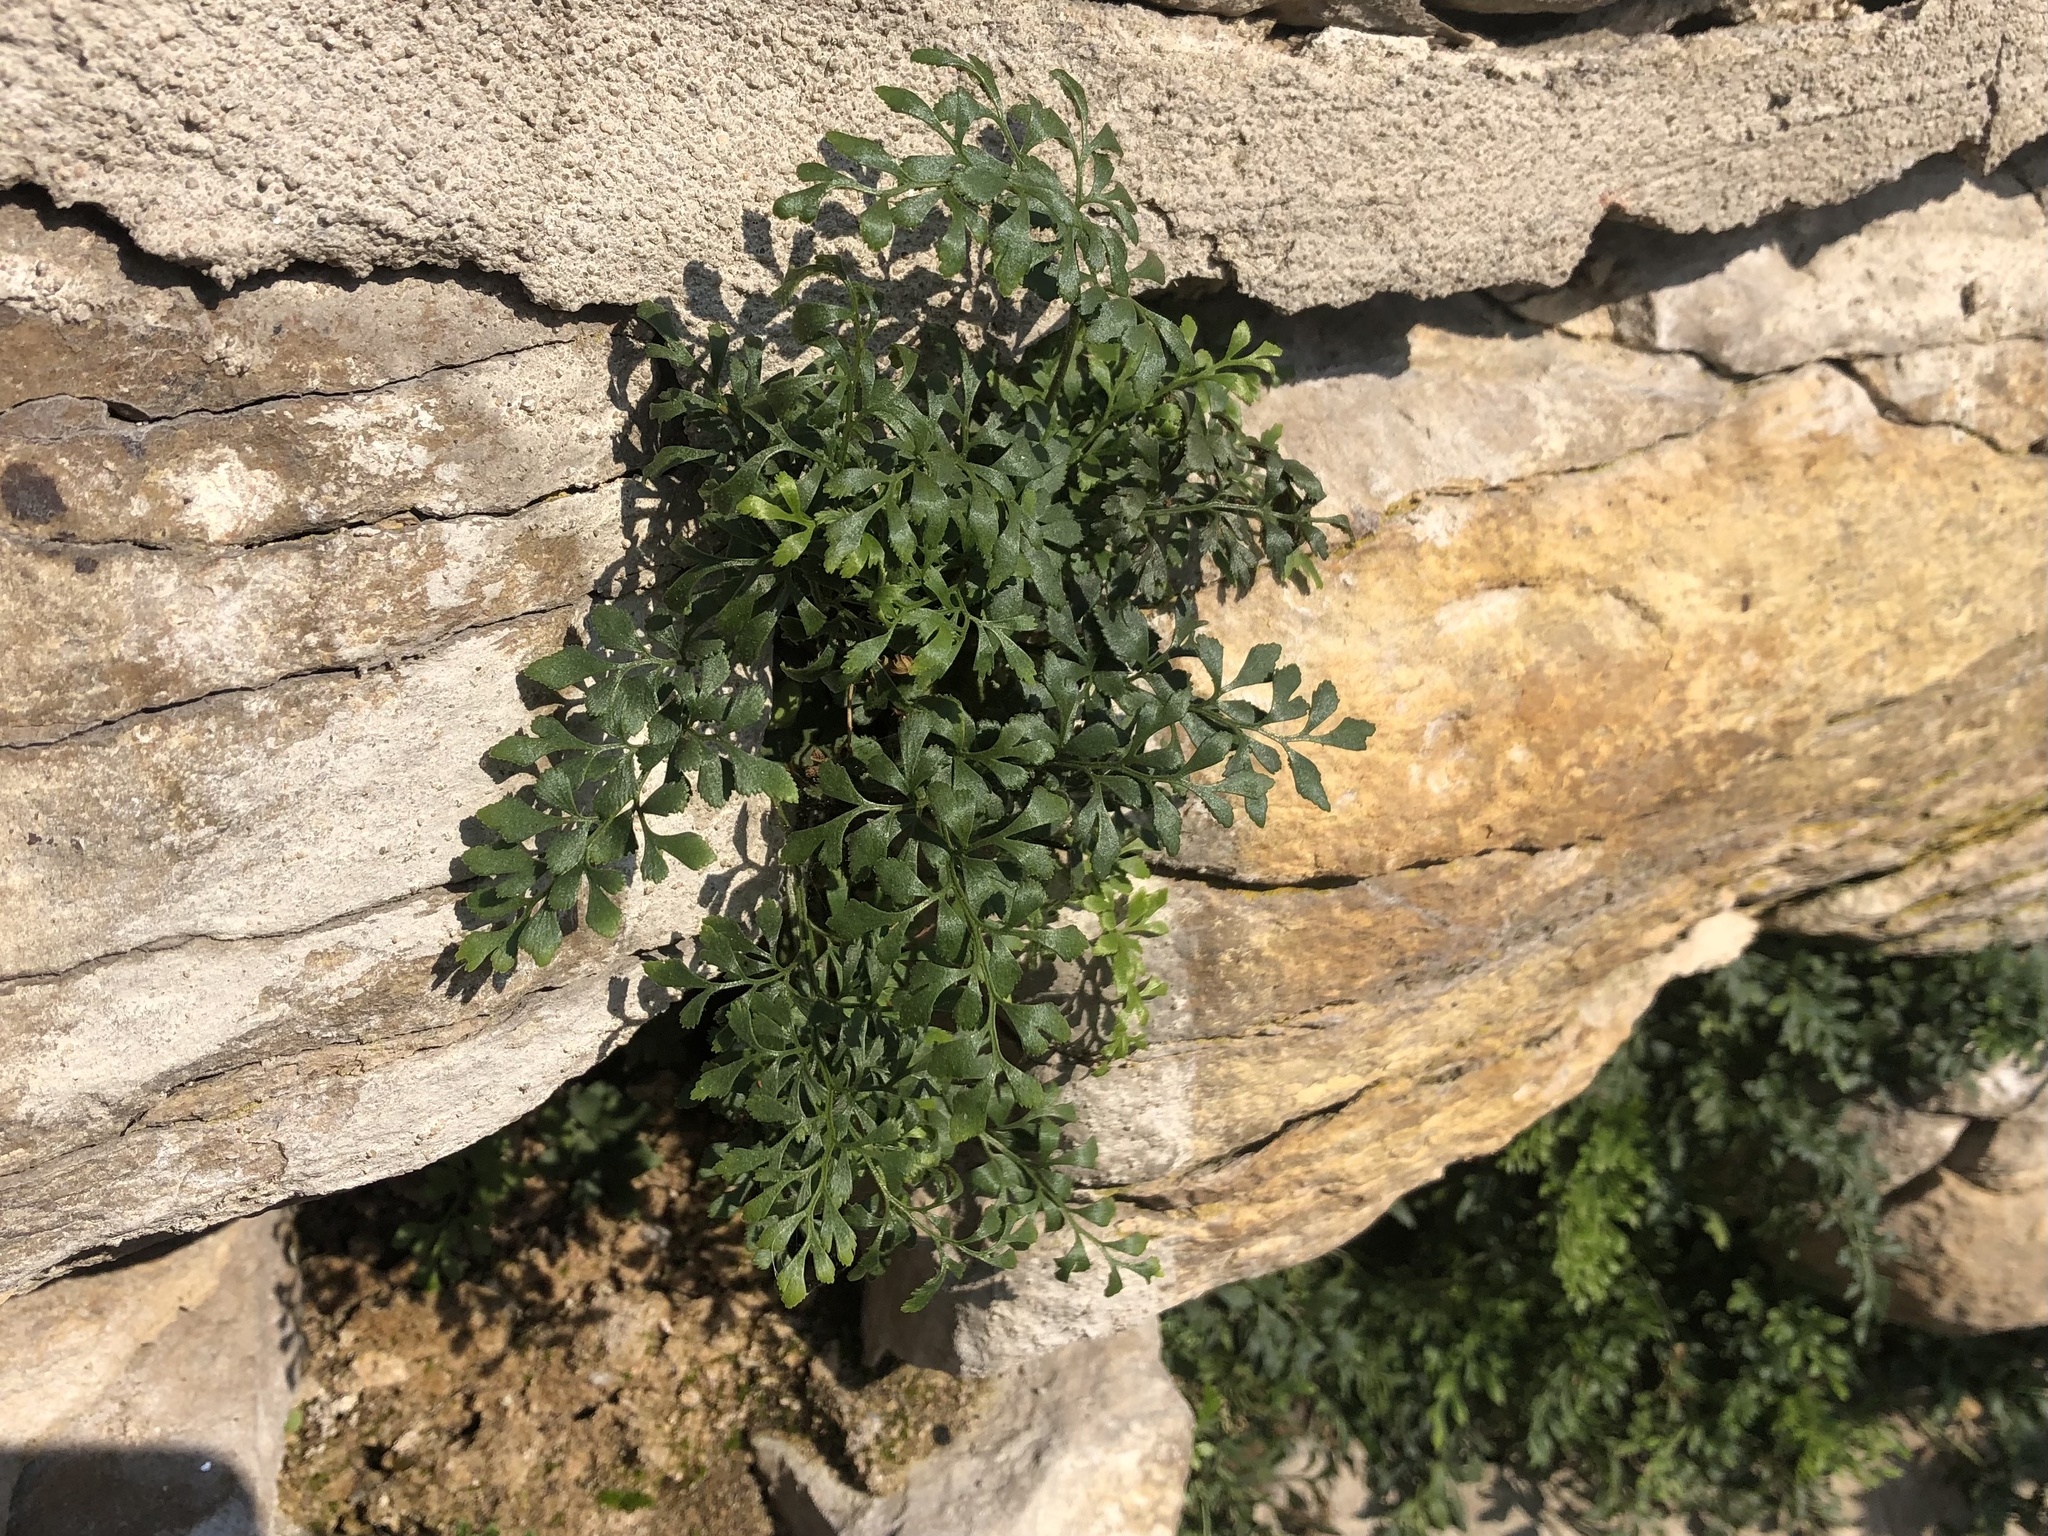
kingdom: Plantae
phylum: Tracheophyta
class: Polypodiopsida
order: Polypodiales
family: Aspleniaceae
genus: Asplenium
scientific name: Asplenium ruta-muraria
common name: Wall-rue
